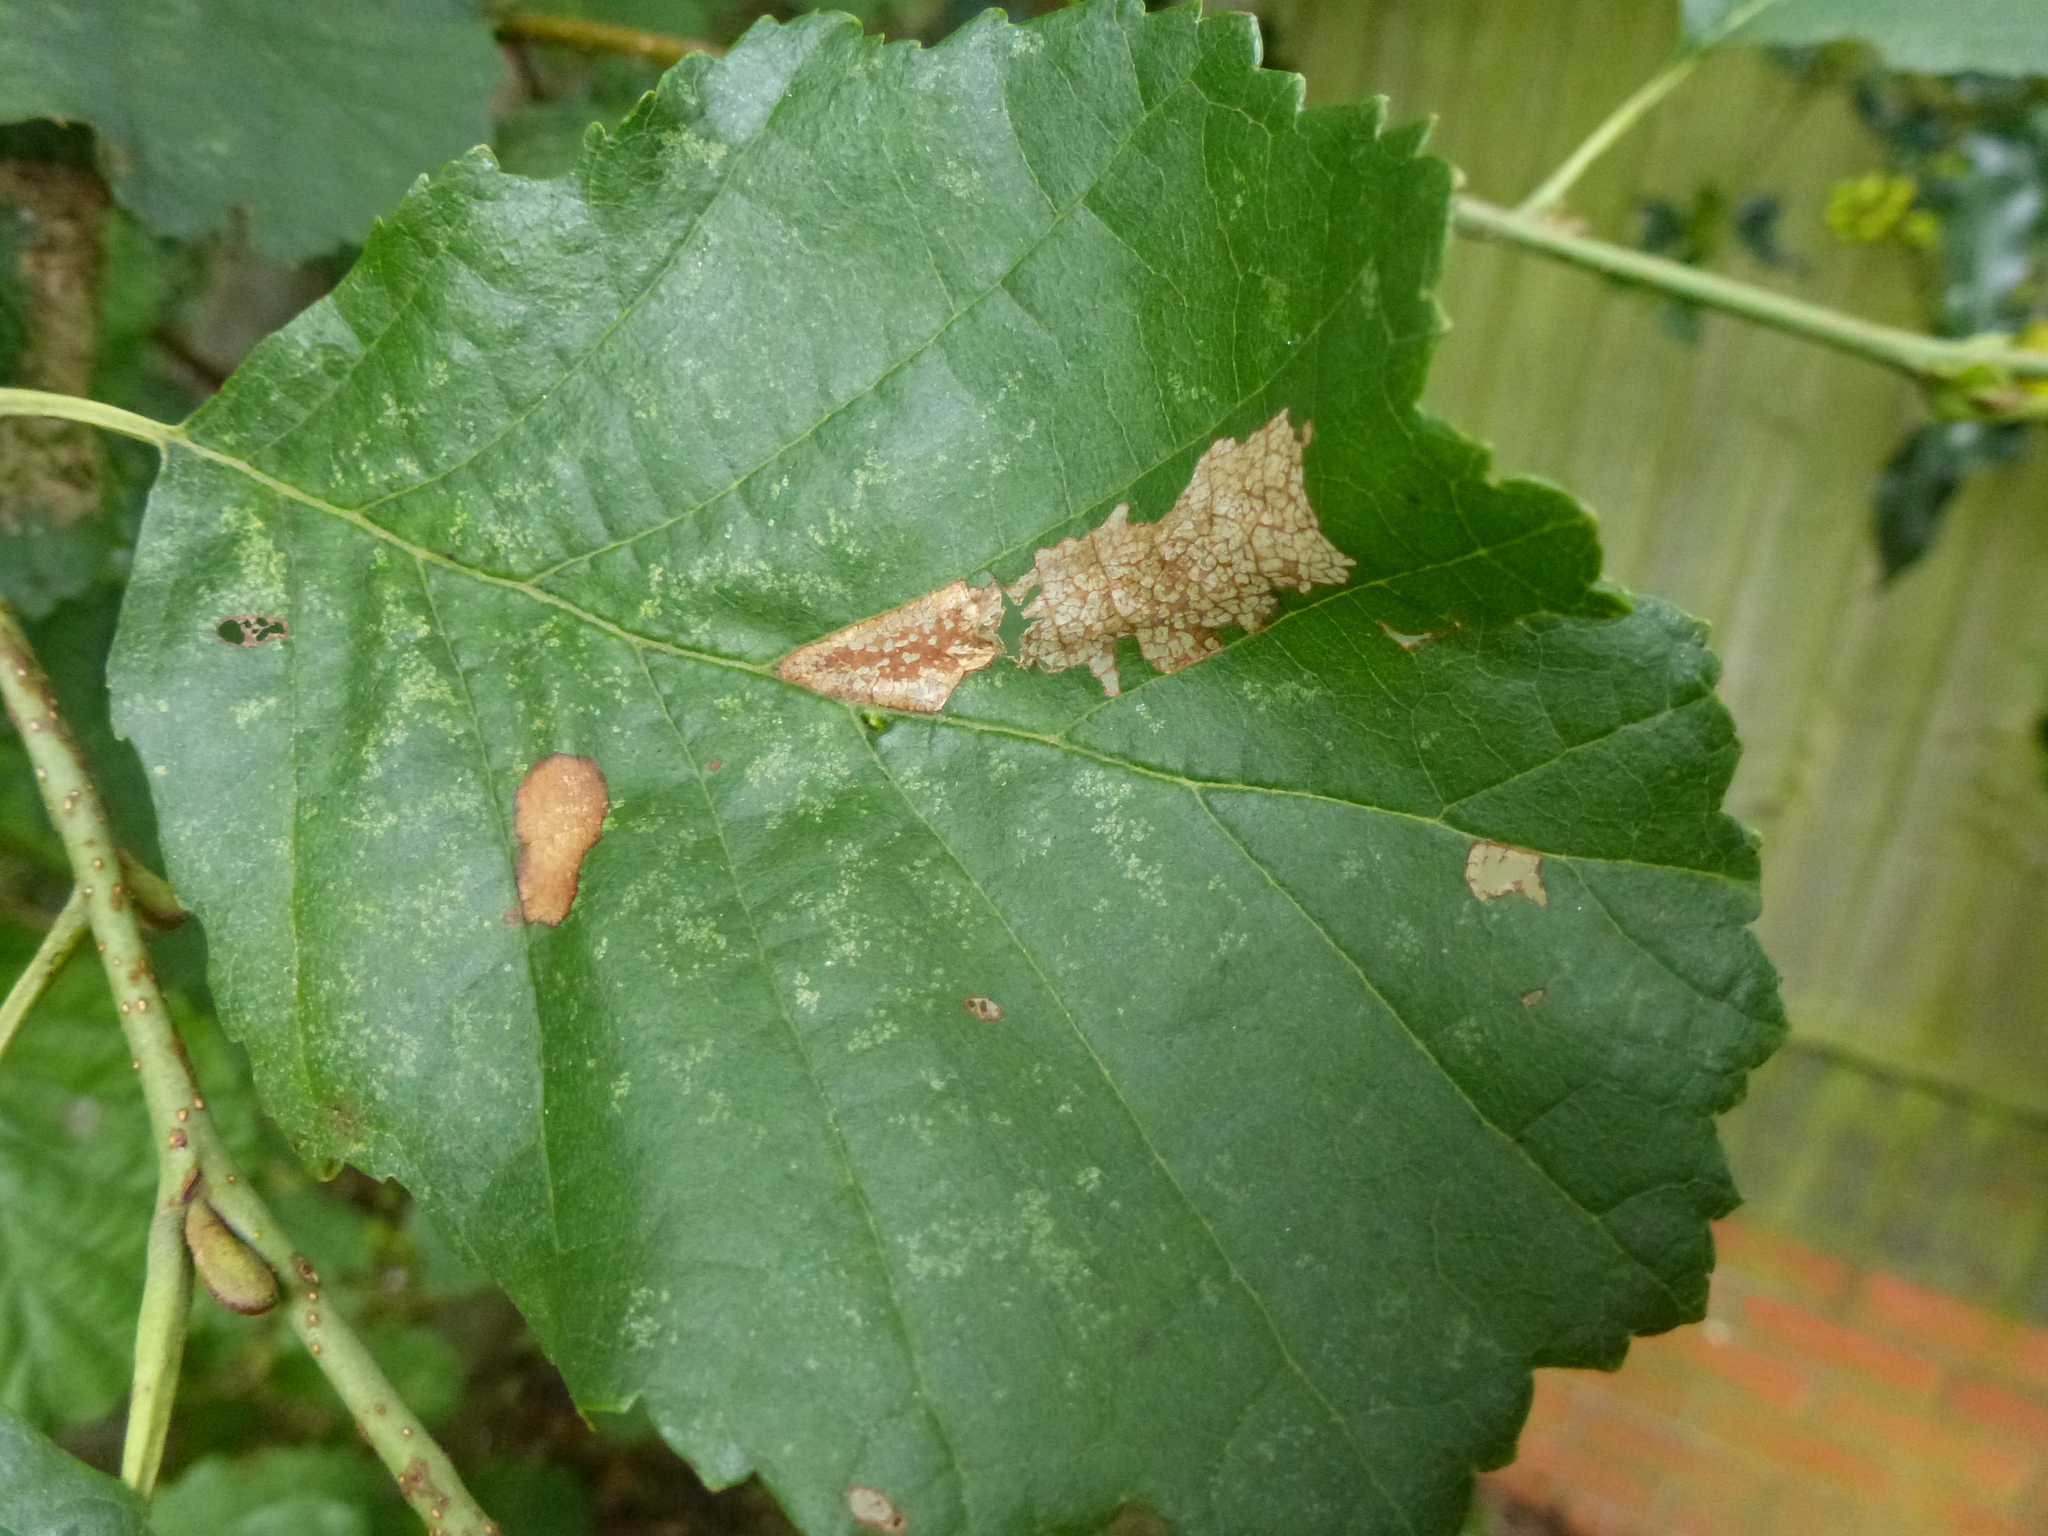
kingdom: Animalia
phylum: Arthropoda
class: Insecta
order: Lepidoptera
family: Gracillariidae
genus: Phyllonorycter
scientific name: Phyllonorycter rajella
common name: Common alder midget
